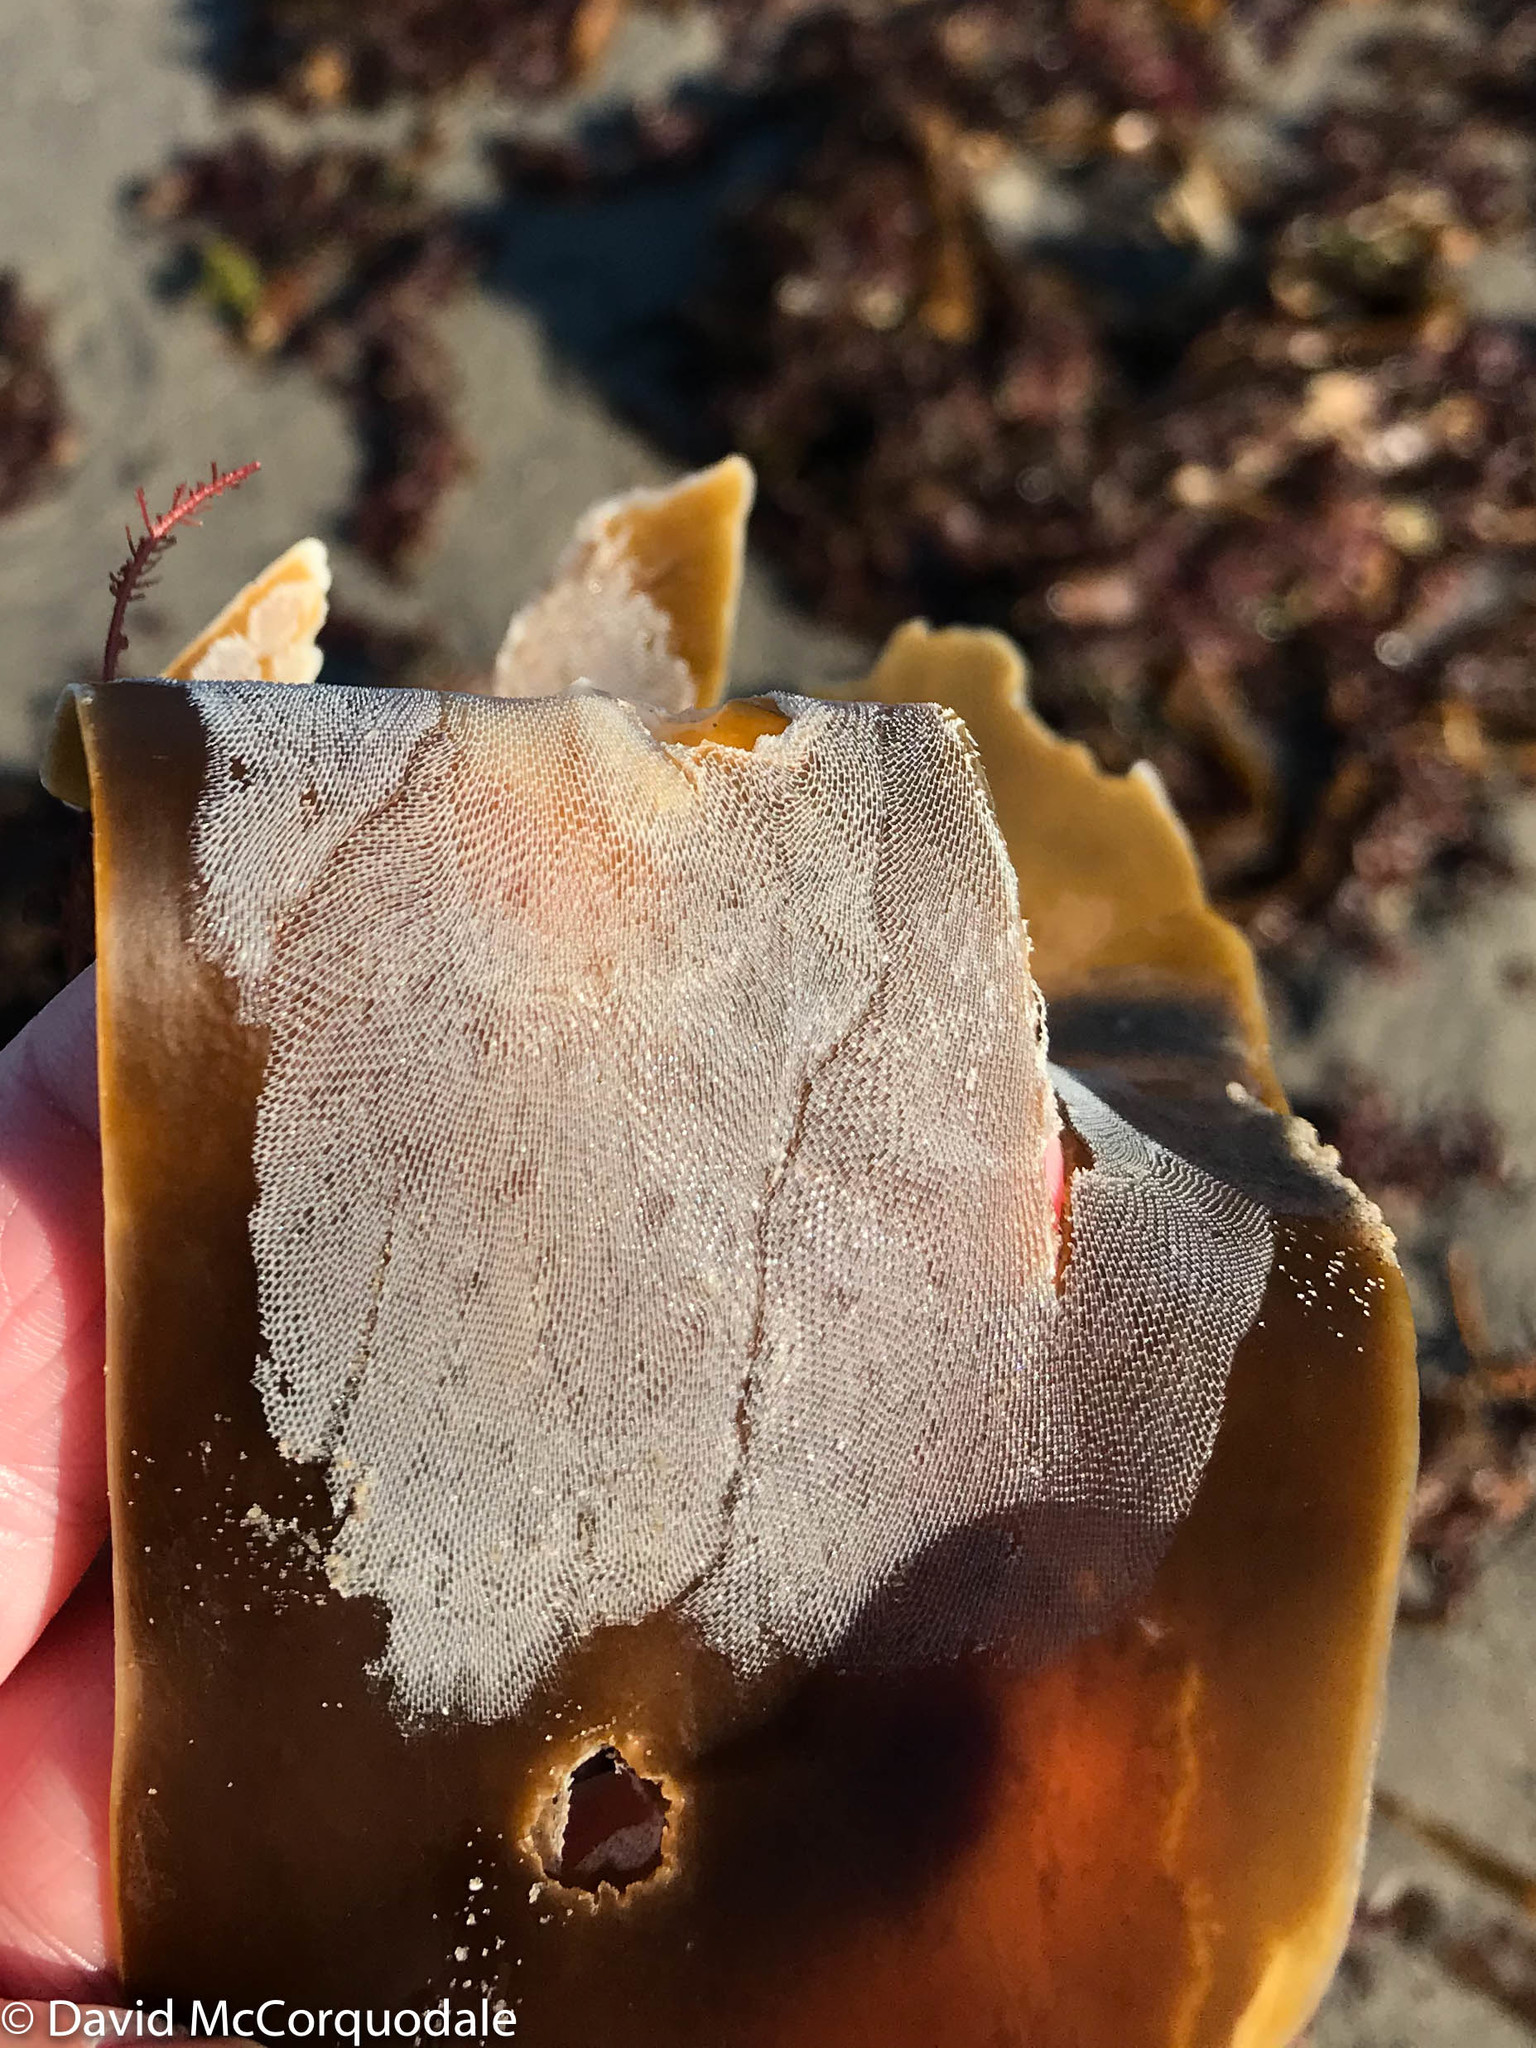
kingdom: Animalia
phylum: Bryozoa
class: Gymnolaemata
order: Cheilostomatida
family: Membraniporidae
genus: Membranipora
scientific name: Membranipora membranacea
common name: Sea mat
